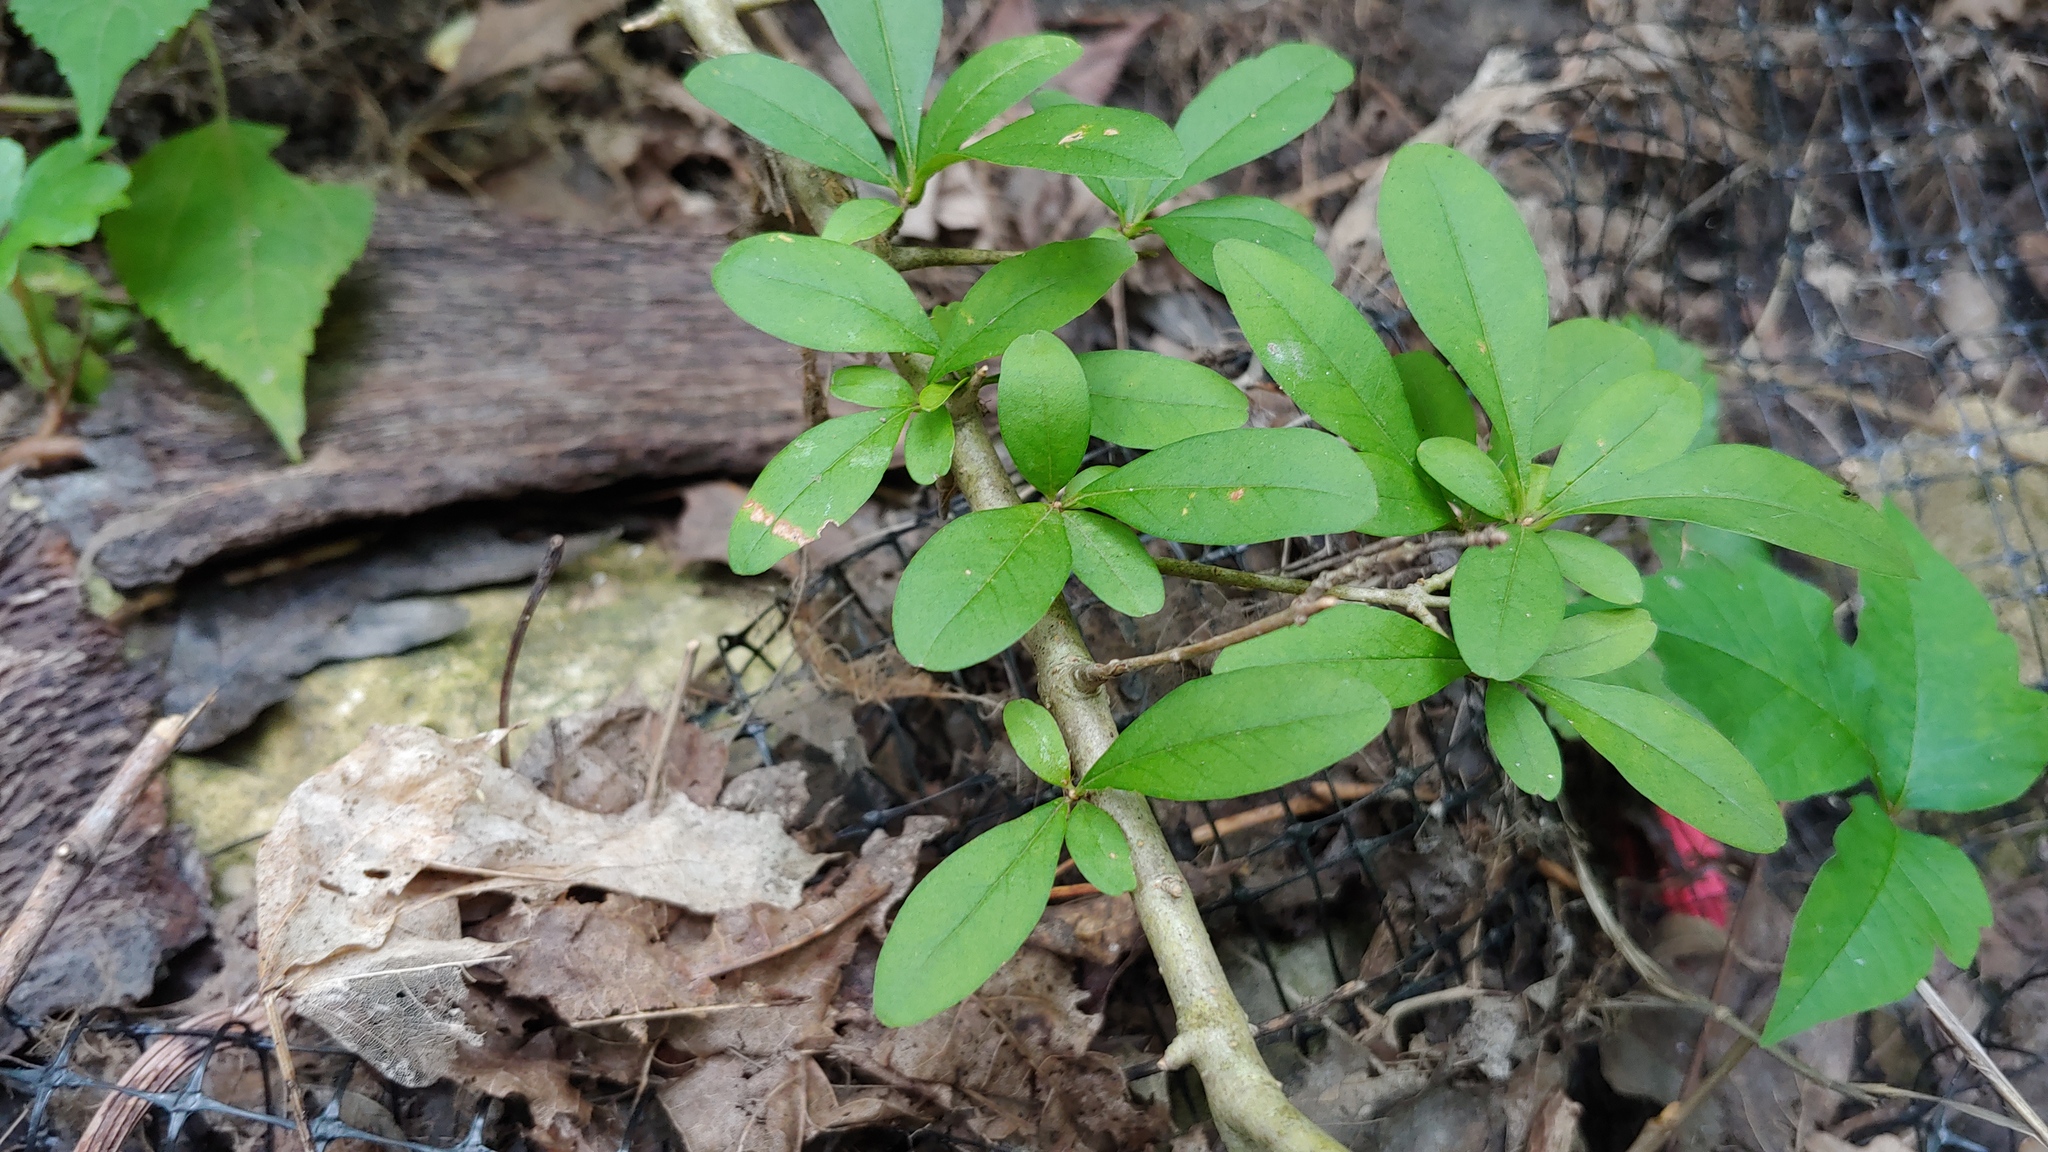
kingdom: Plantae
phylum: Tracheophyta
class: Magnoliopsida
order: Lamiales
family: Oleaceae
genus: Ligustrum
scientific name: Ligustrum obtusifolium
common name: Border privet
